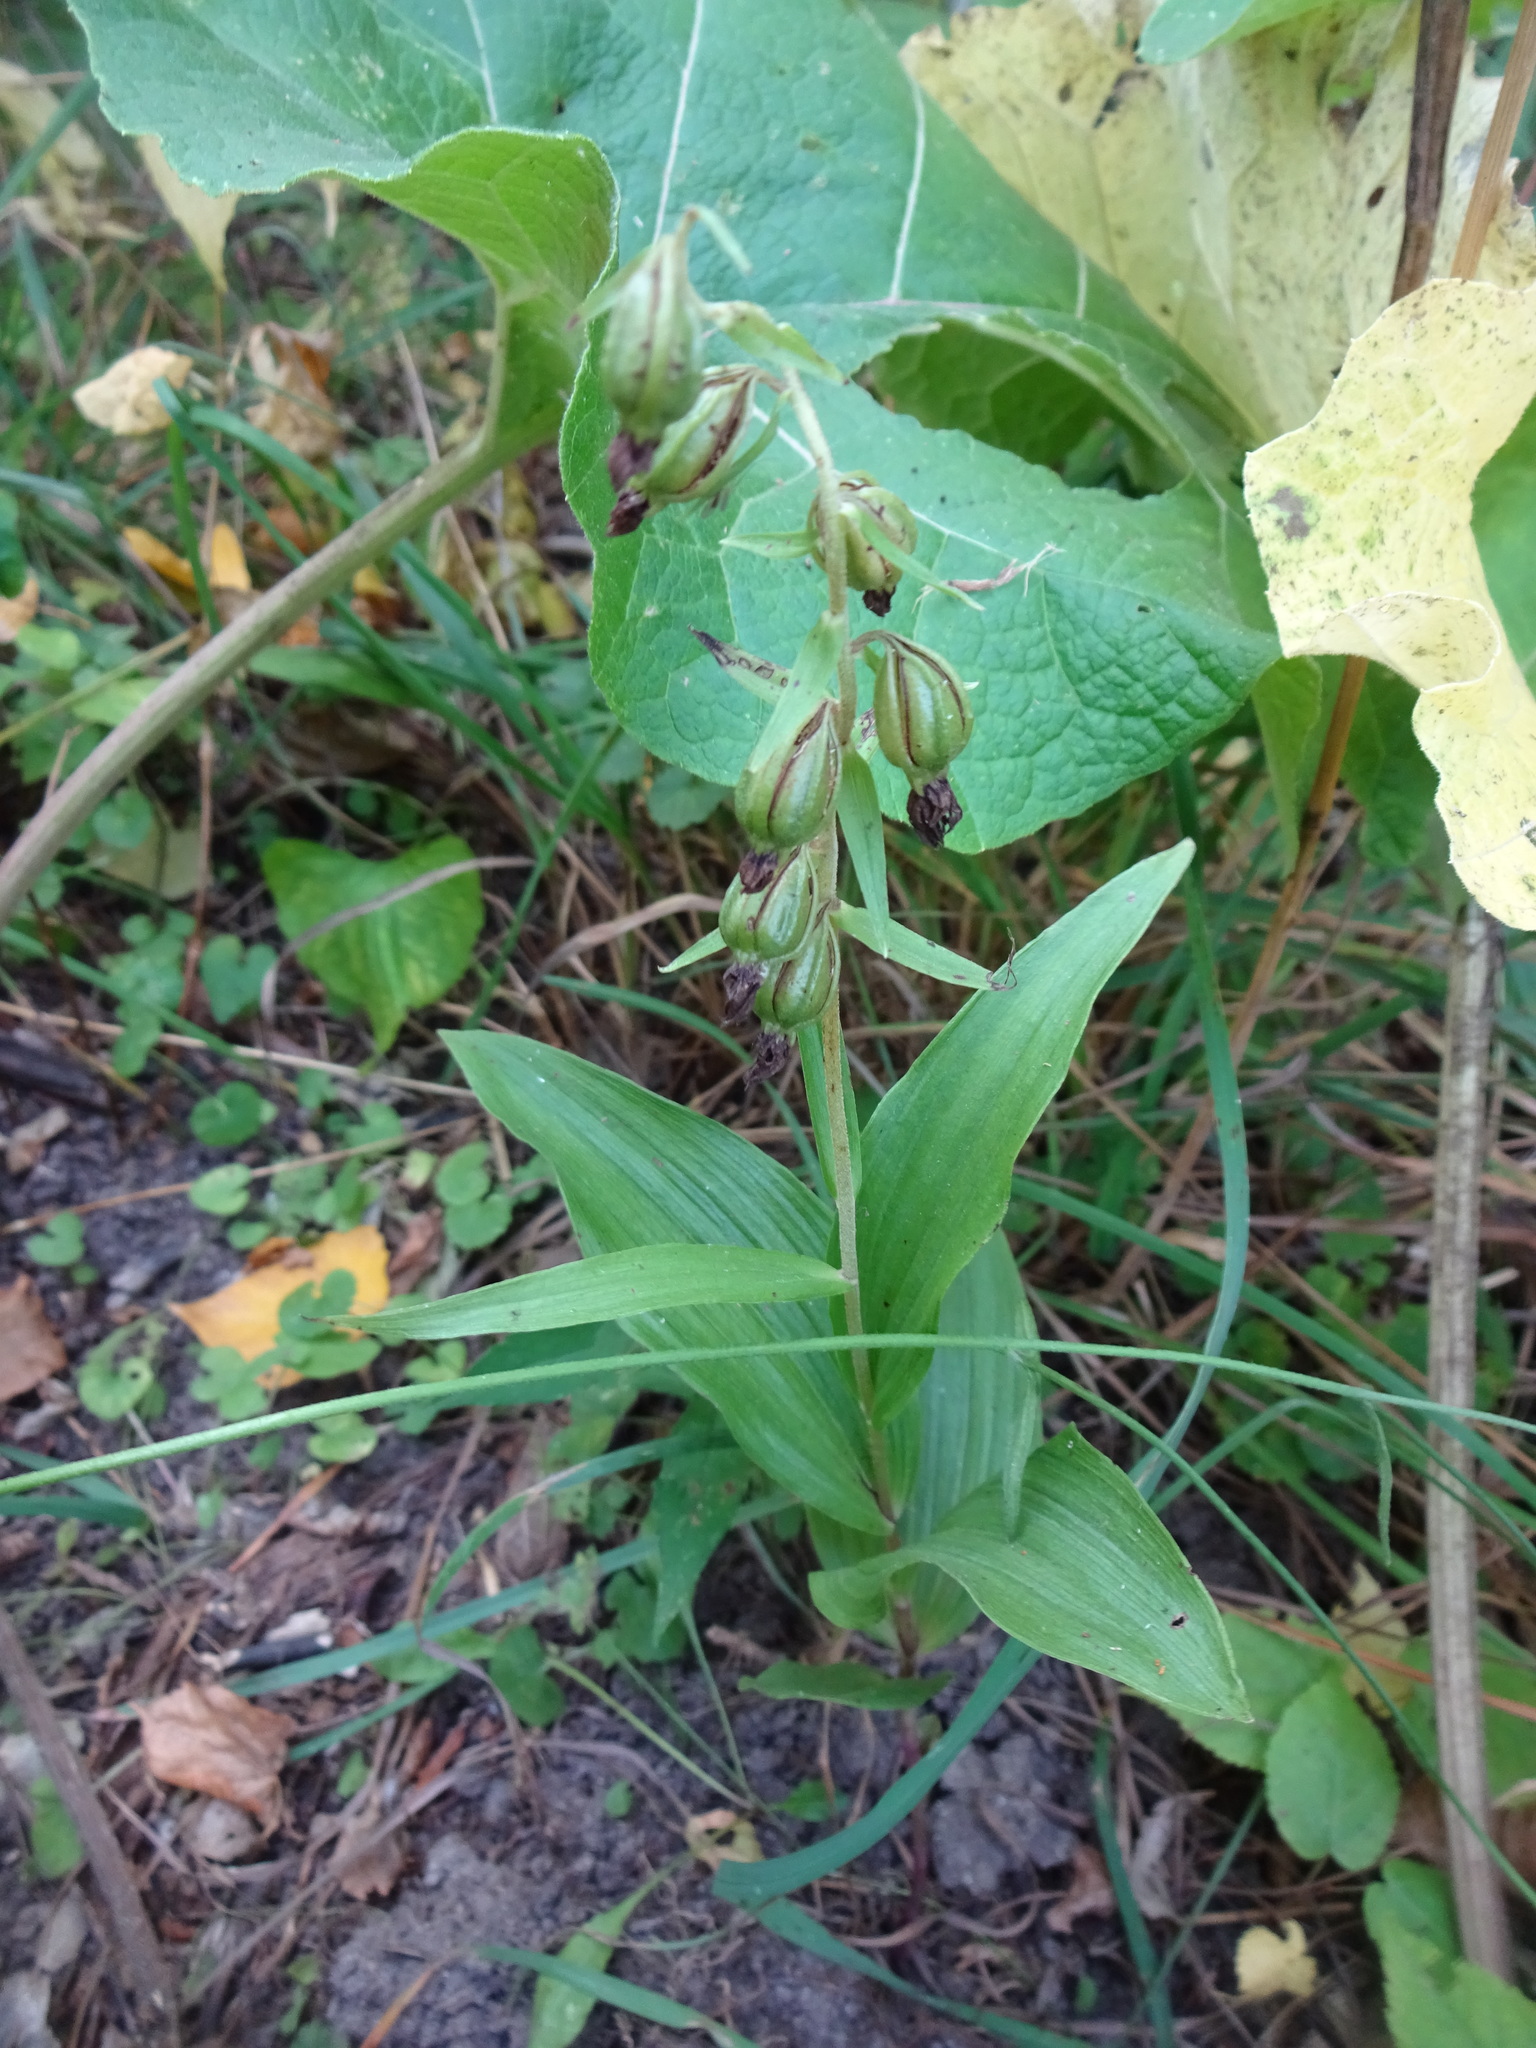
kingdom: Plantae
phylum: Tracheophyta
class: Liliopsida
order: Asparagales
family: Orchidaceae
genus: Epipactis
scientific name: Epipactis helleborine
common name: Broad-leaved helleborine
